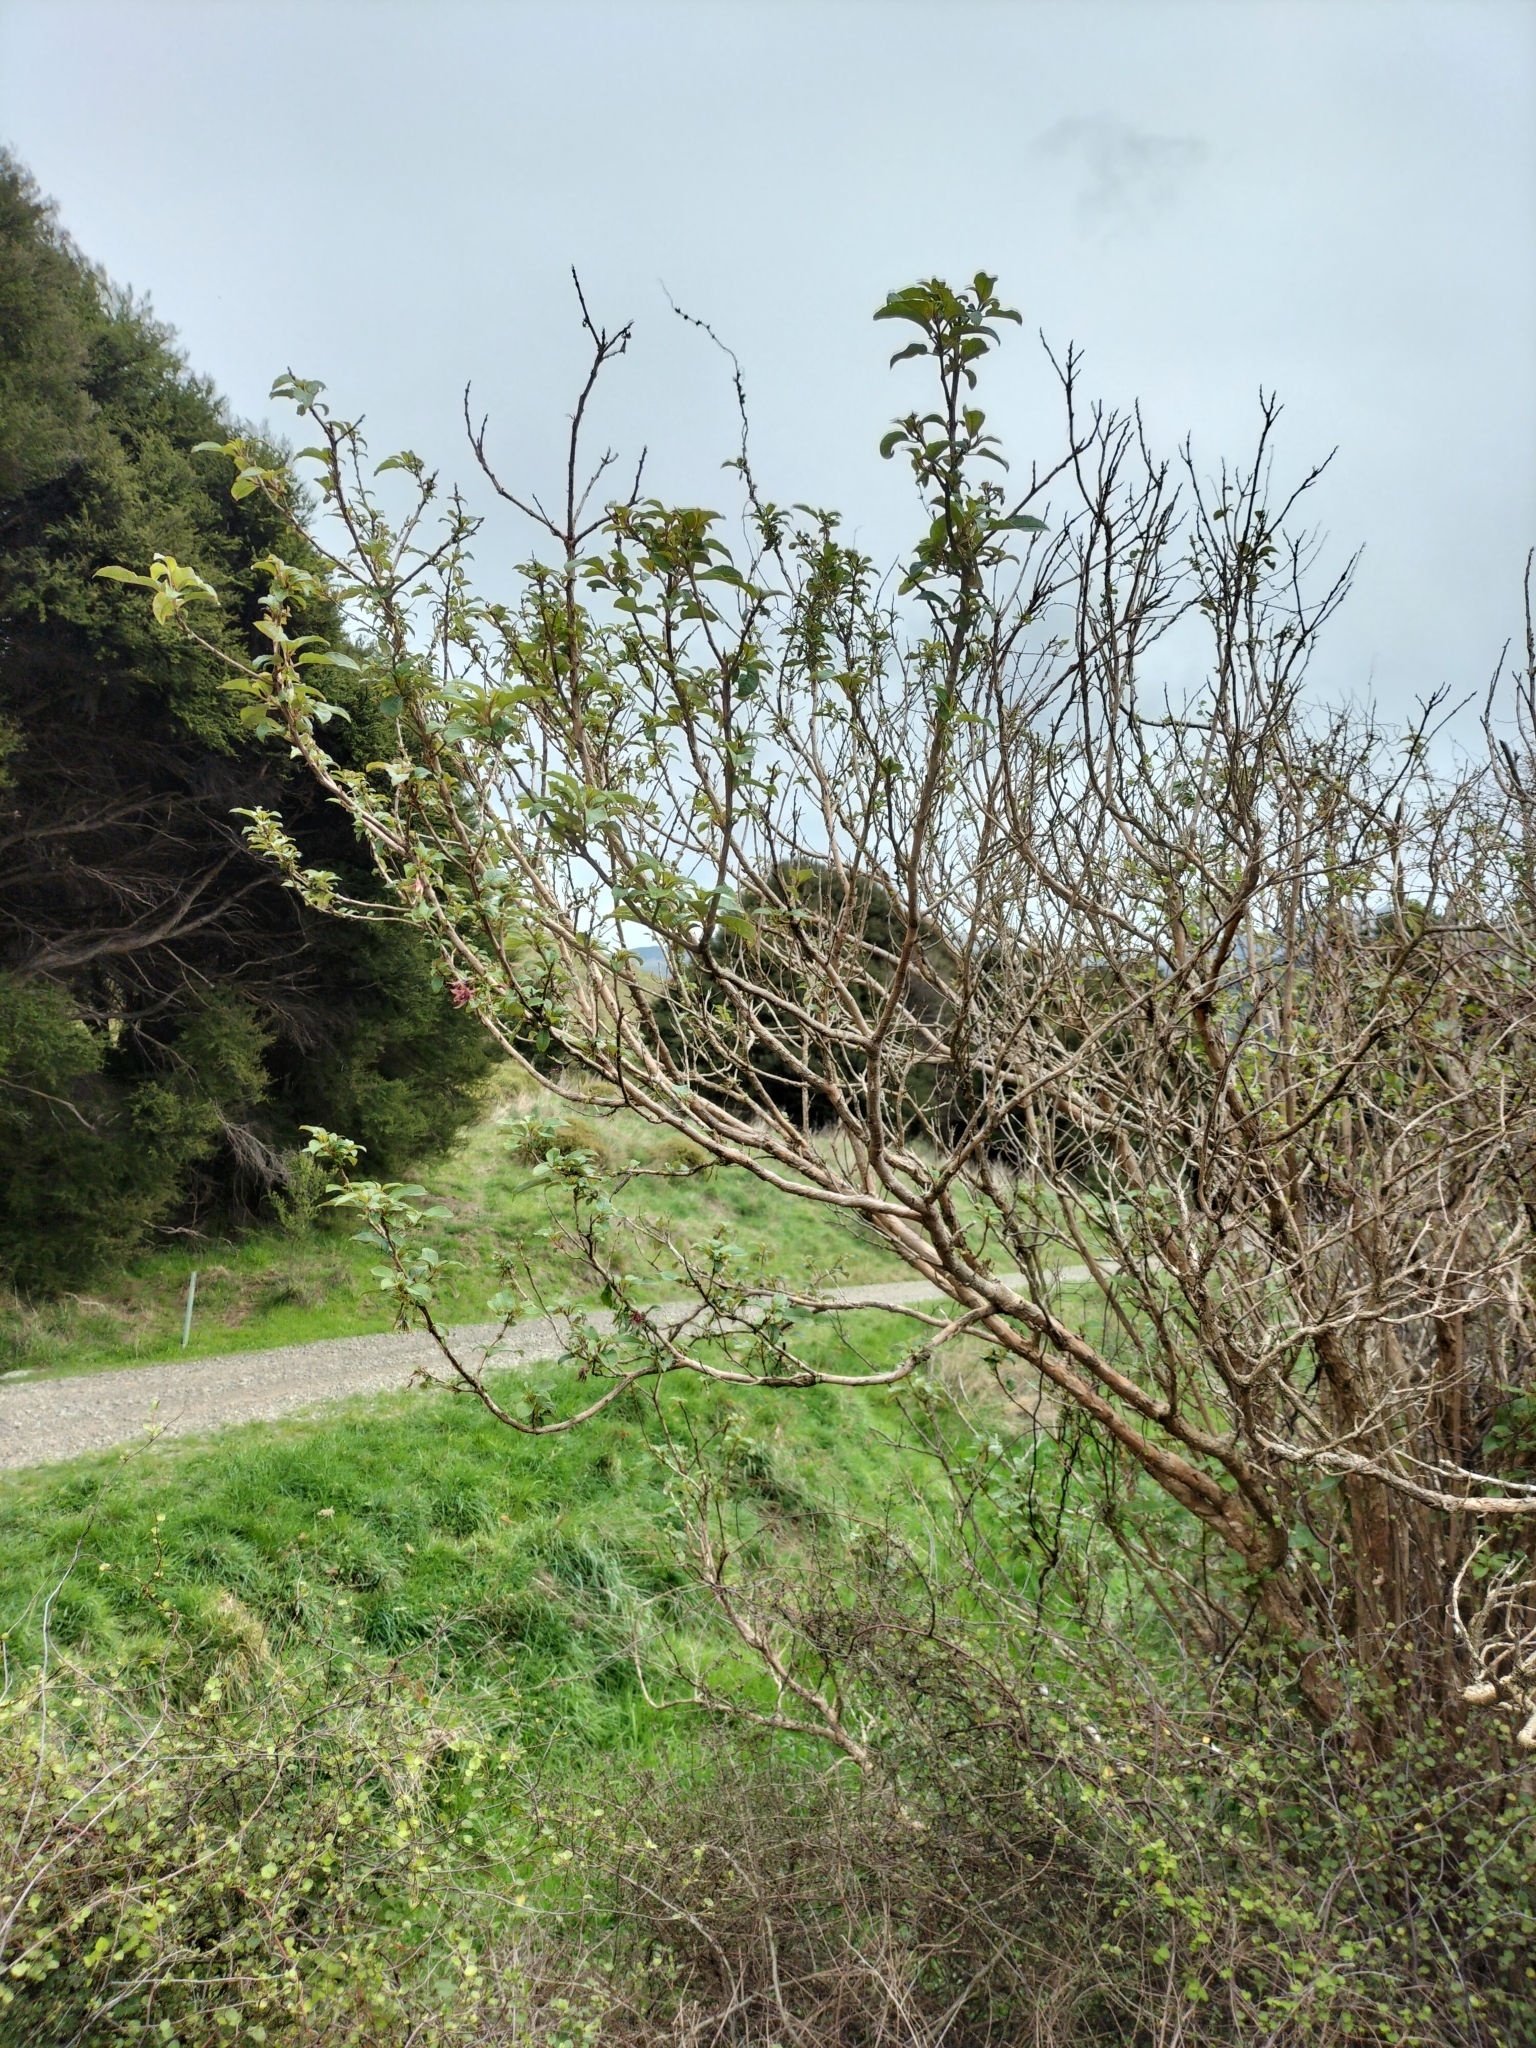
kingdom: Plantae
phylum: Tracheophyta
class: Magnoliopsida
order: Myrtales
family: Onagraceae
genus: Fuchsia
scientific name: Fuchsia excorticata
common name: Tree fuchsia
